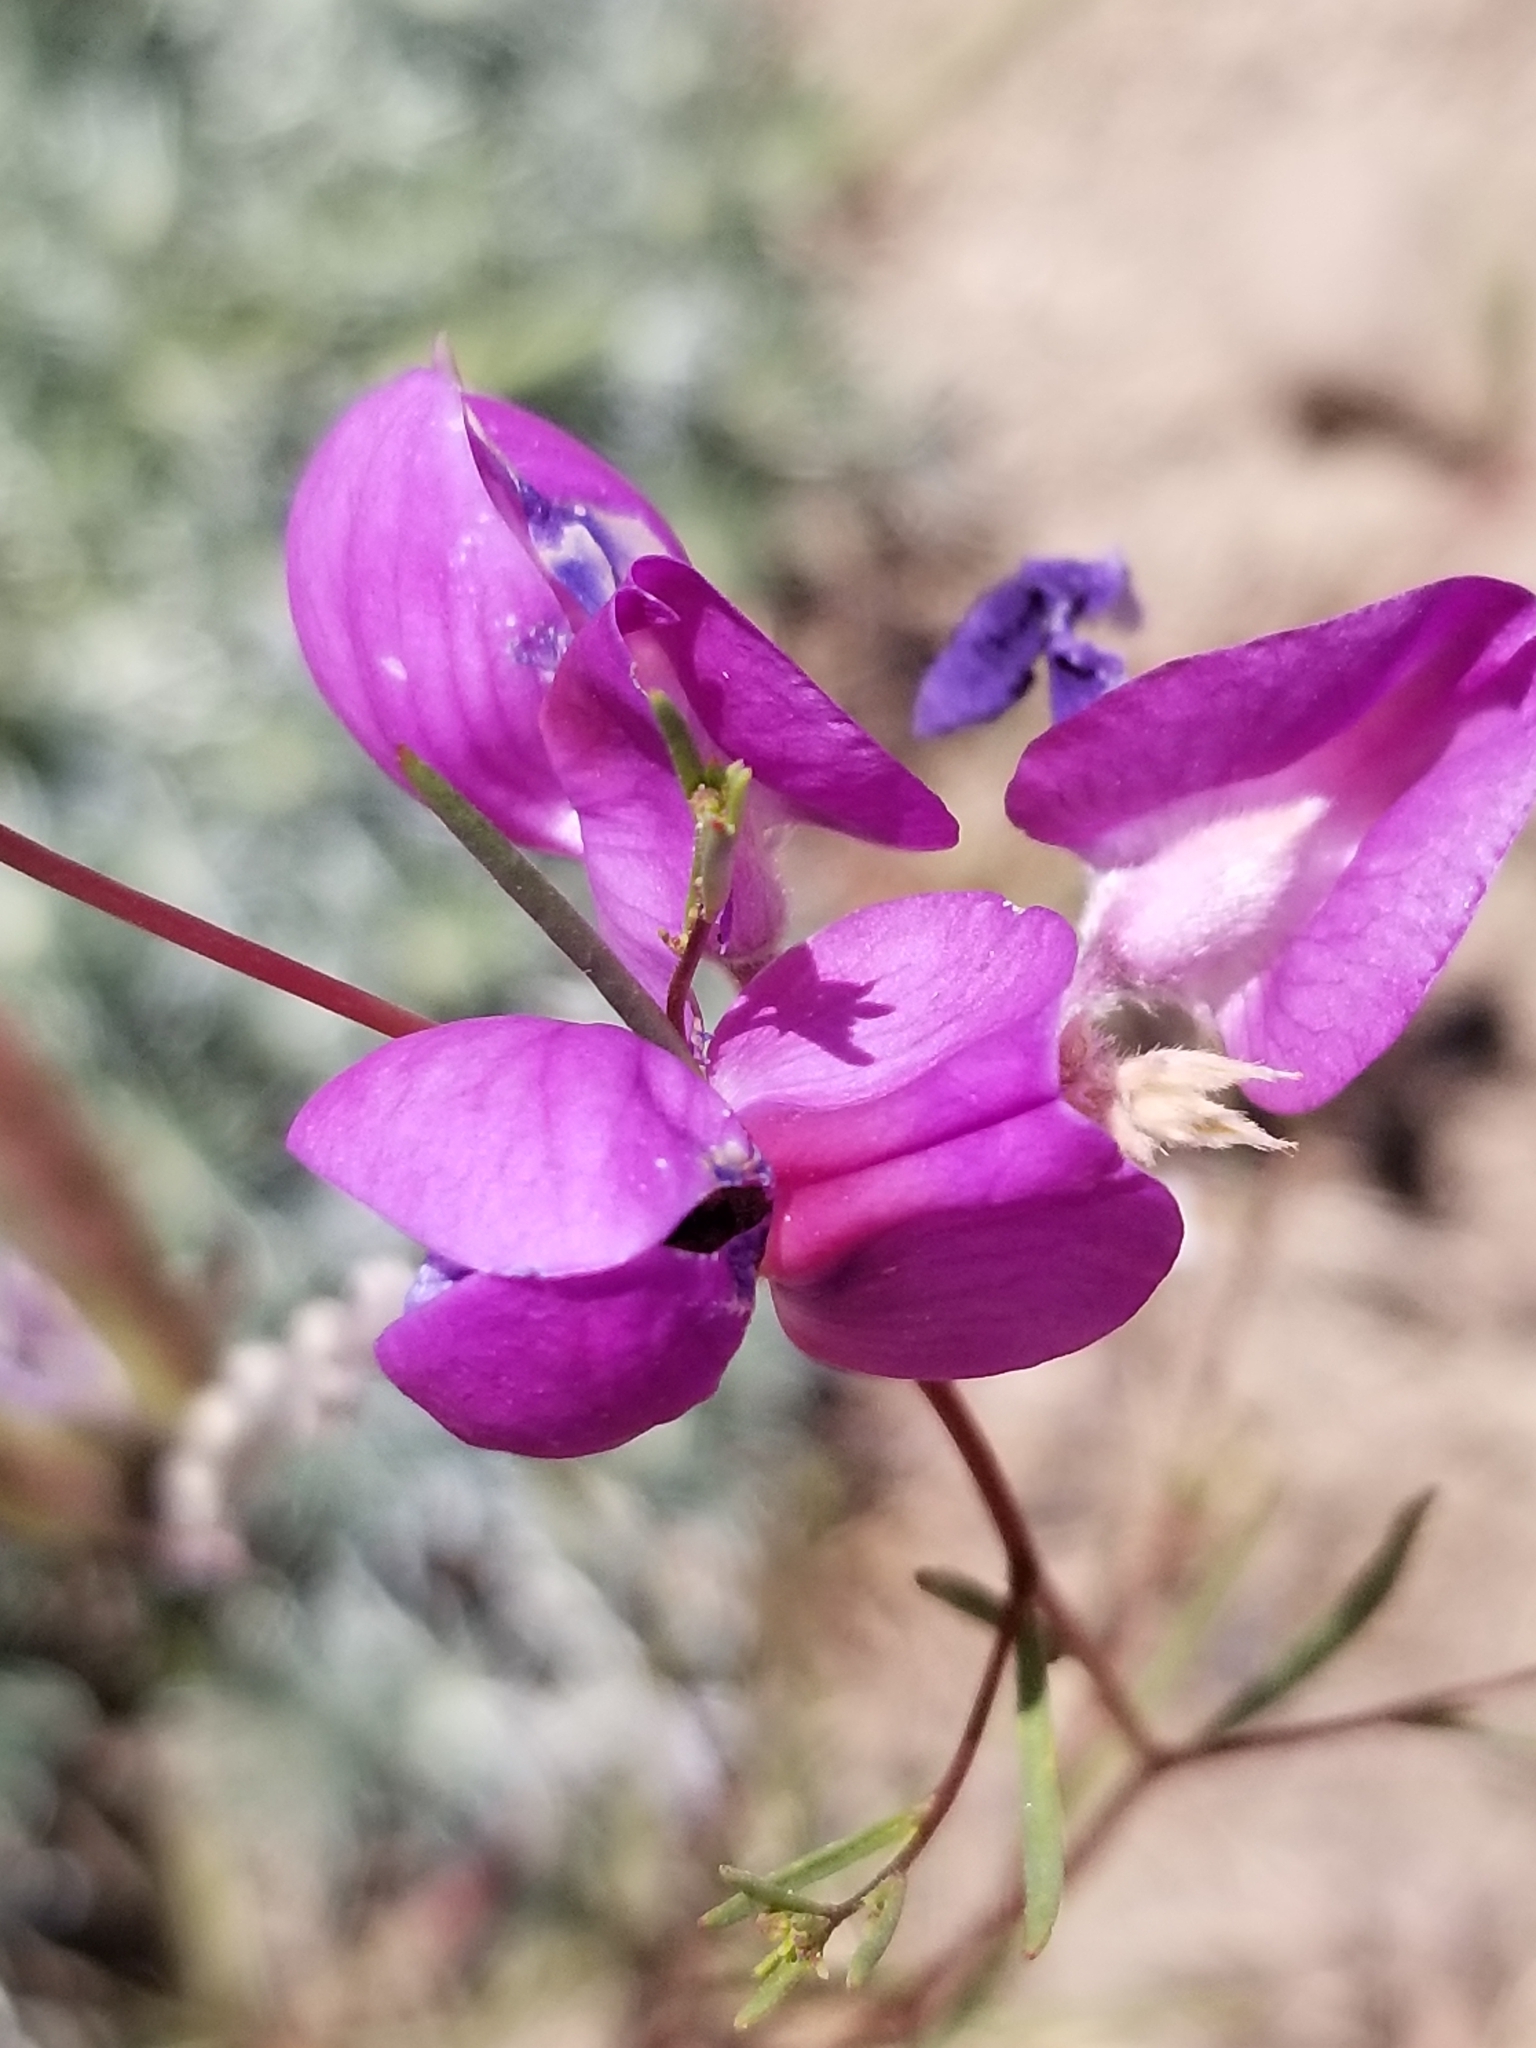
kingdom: Plantae
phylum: Tracheophyta
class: Magnoliopsida
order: Fabales
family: Fabaceae
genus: Lupinus
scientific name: Lupinus excubitus
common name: Grape soda lupine
